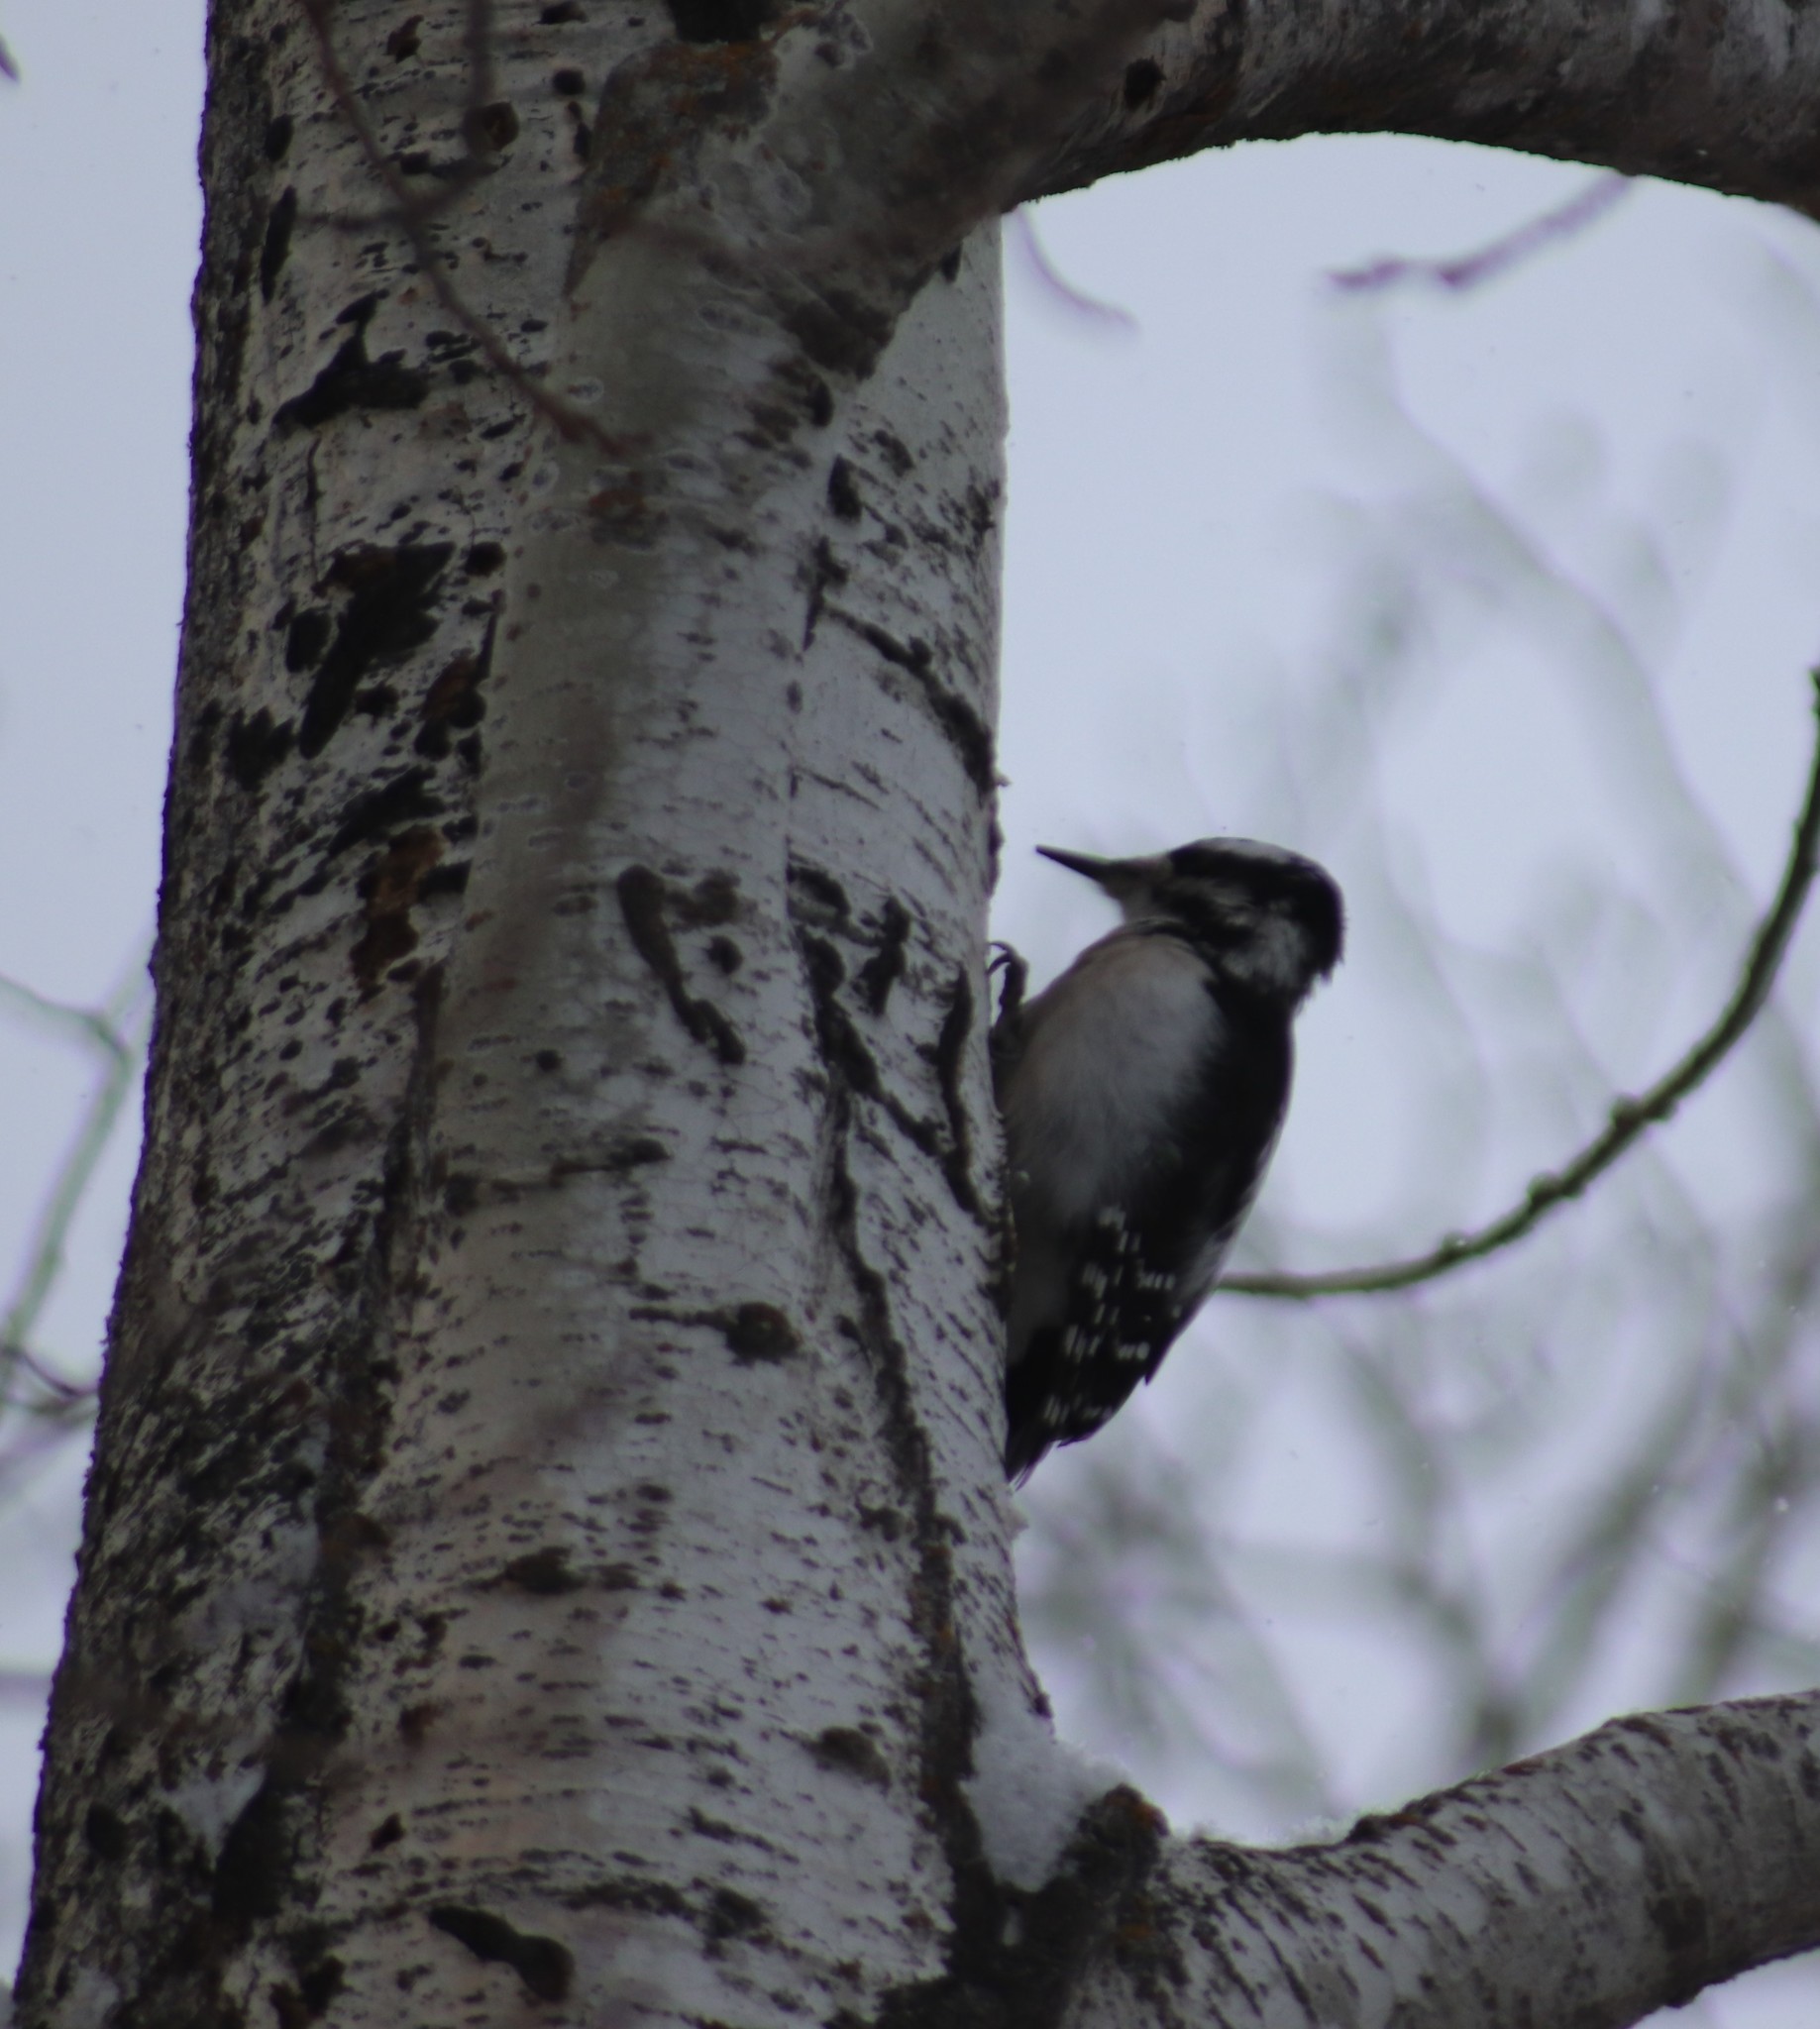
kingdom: Animalia
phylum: Chordata
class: Aves
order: Piciformes
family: Picidae
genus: Dryobates
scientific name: Dryobates pubescens
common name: Downy woodpecker
